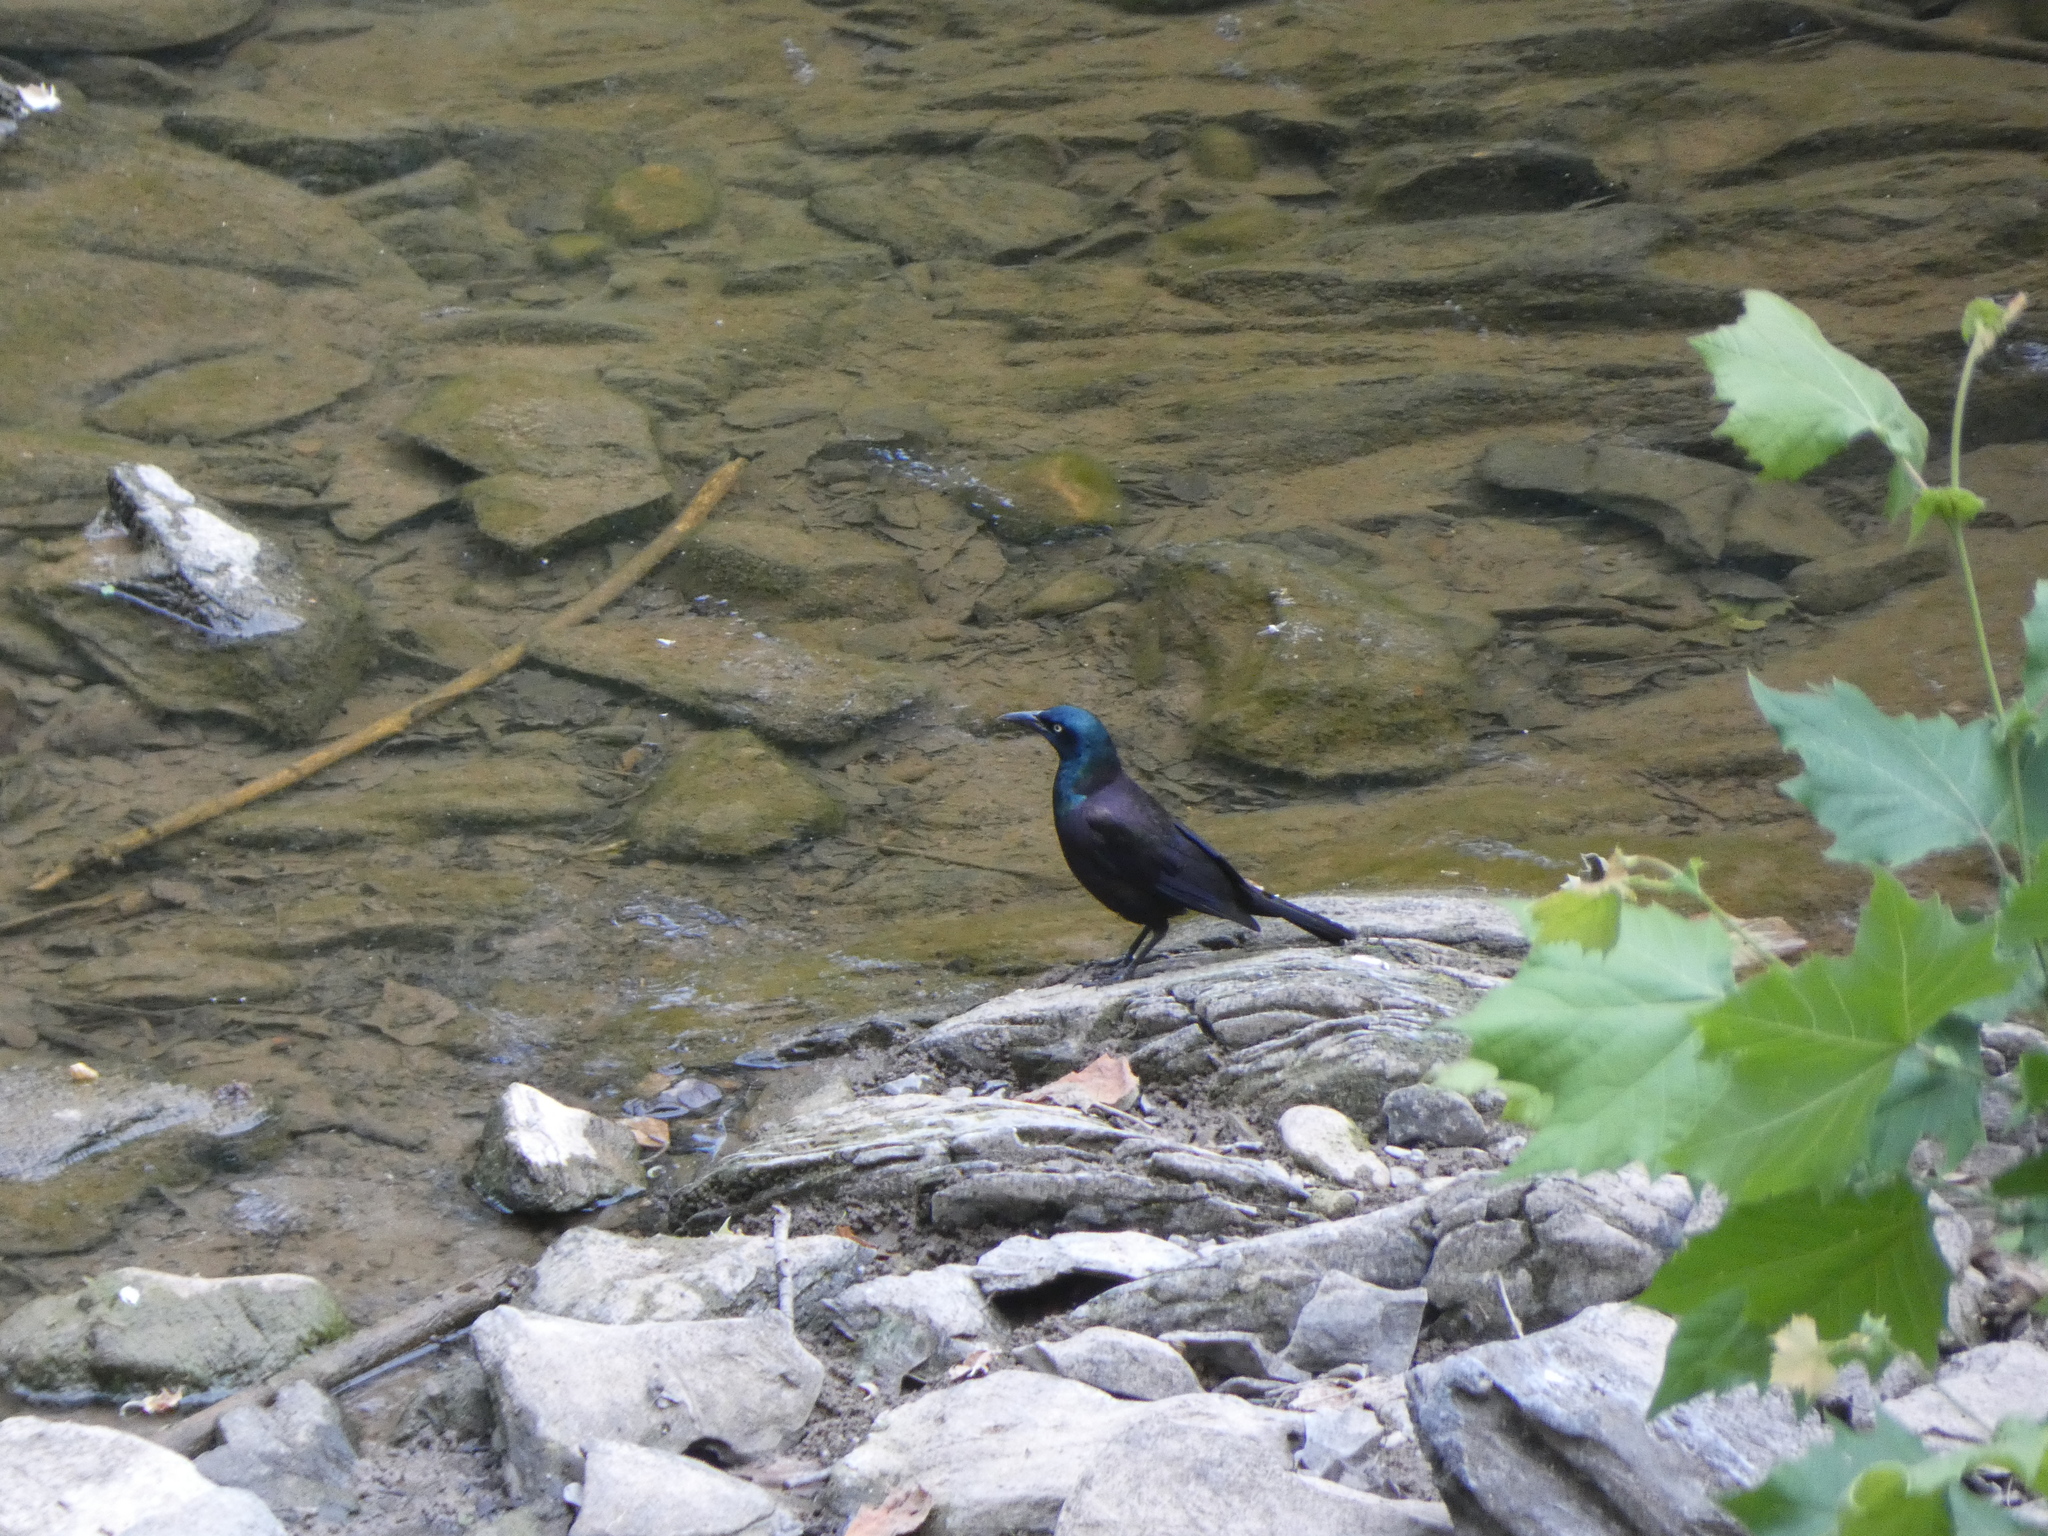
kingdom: Animalia
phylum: Chordata
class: Aves
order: Passeriformes
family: Icteridae
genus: Quiscalus
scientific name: Quiscalus quiscula
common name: Common grackle
